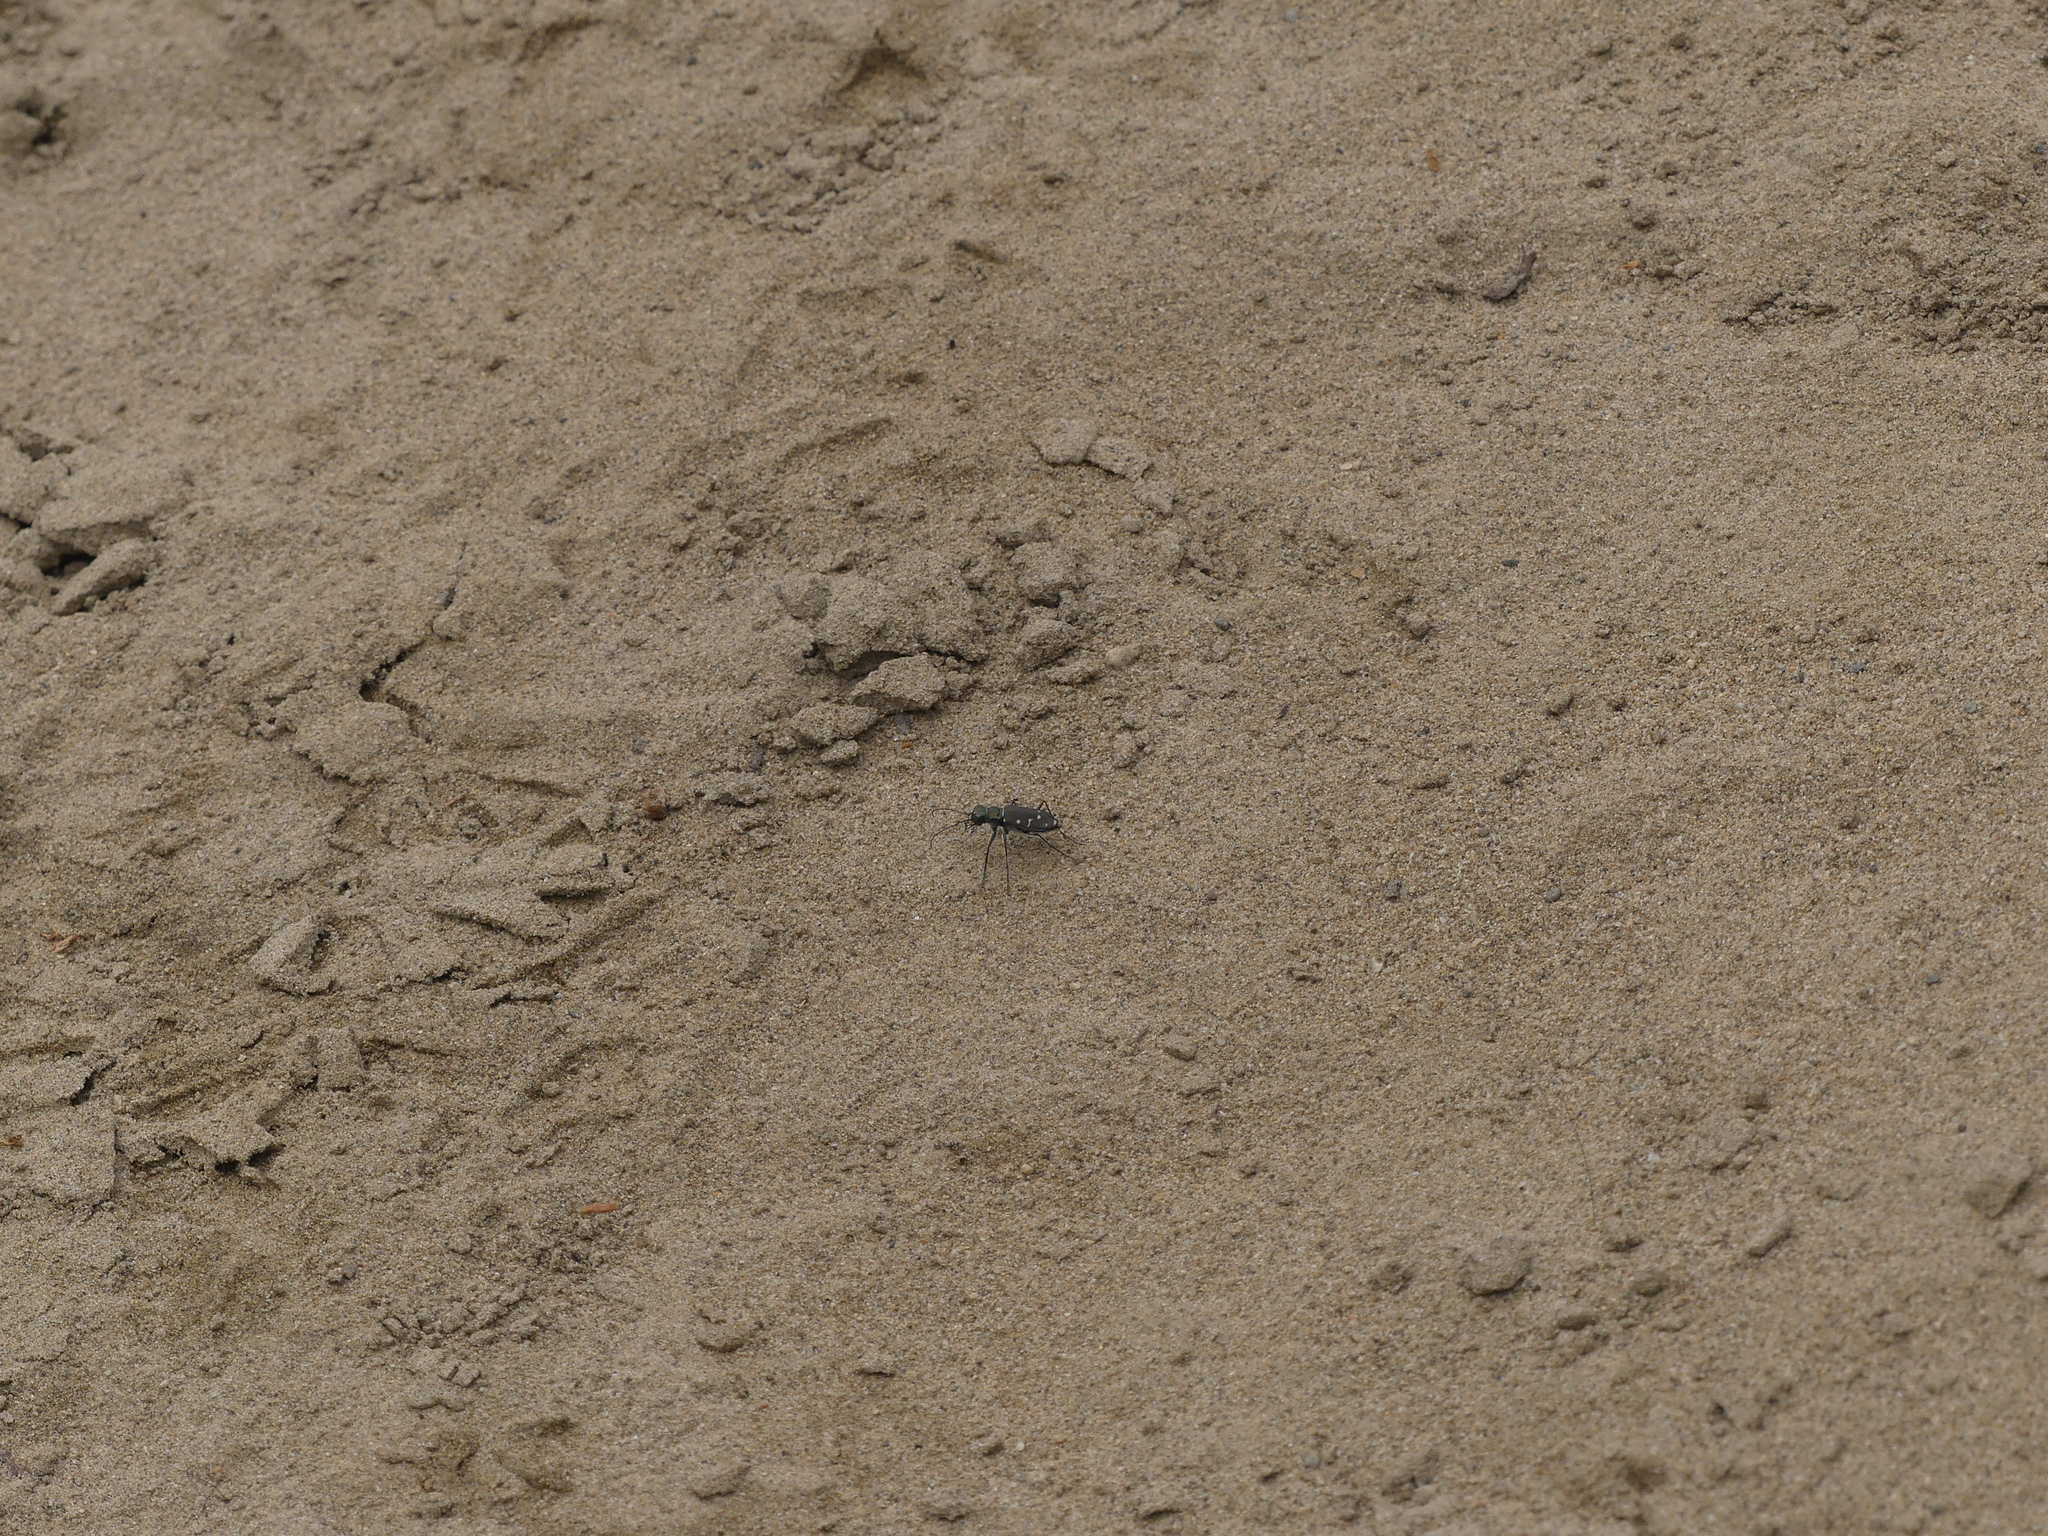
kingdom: Animalia
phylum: Arthropoda
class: Insecta
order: Coleoptera
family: Carabidae
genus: Cicindela
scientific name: Cicindela oregona
